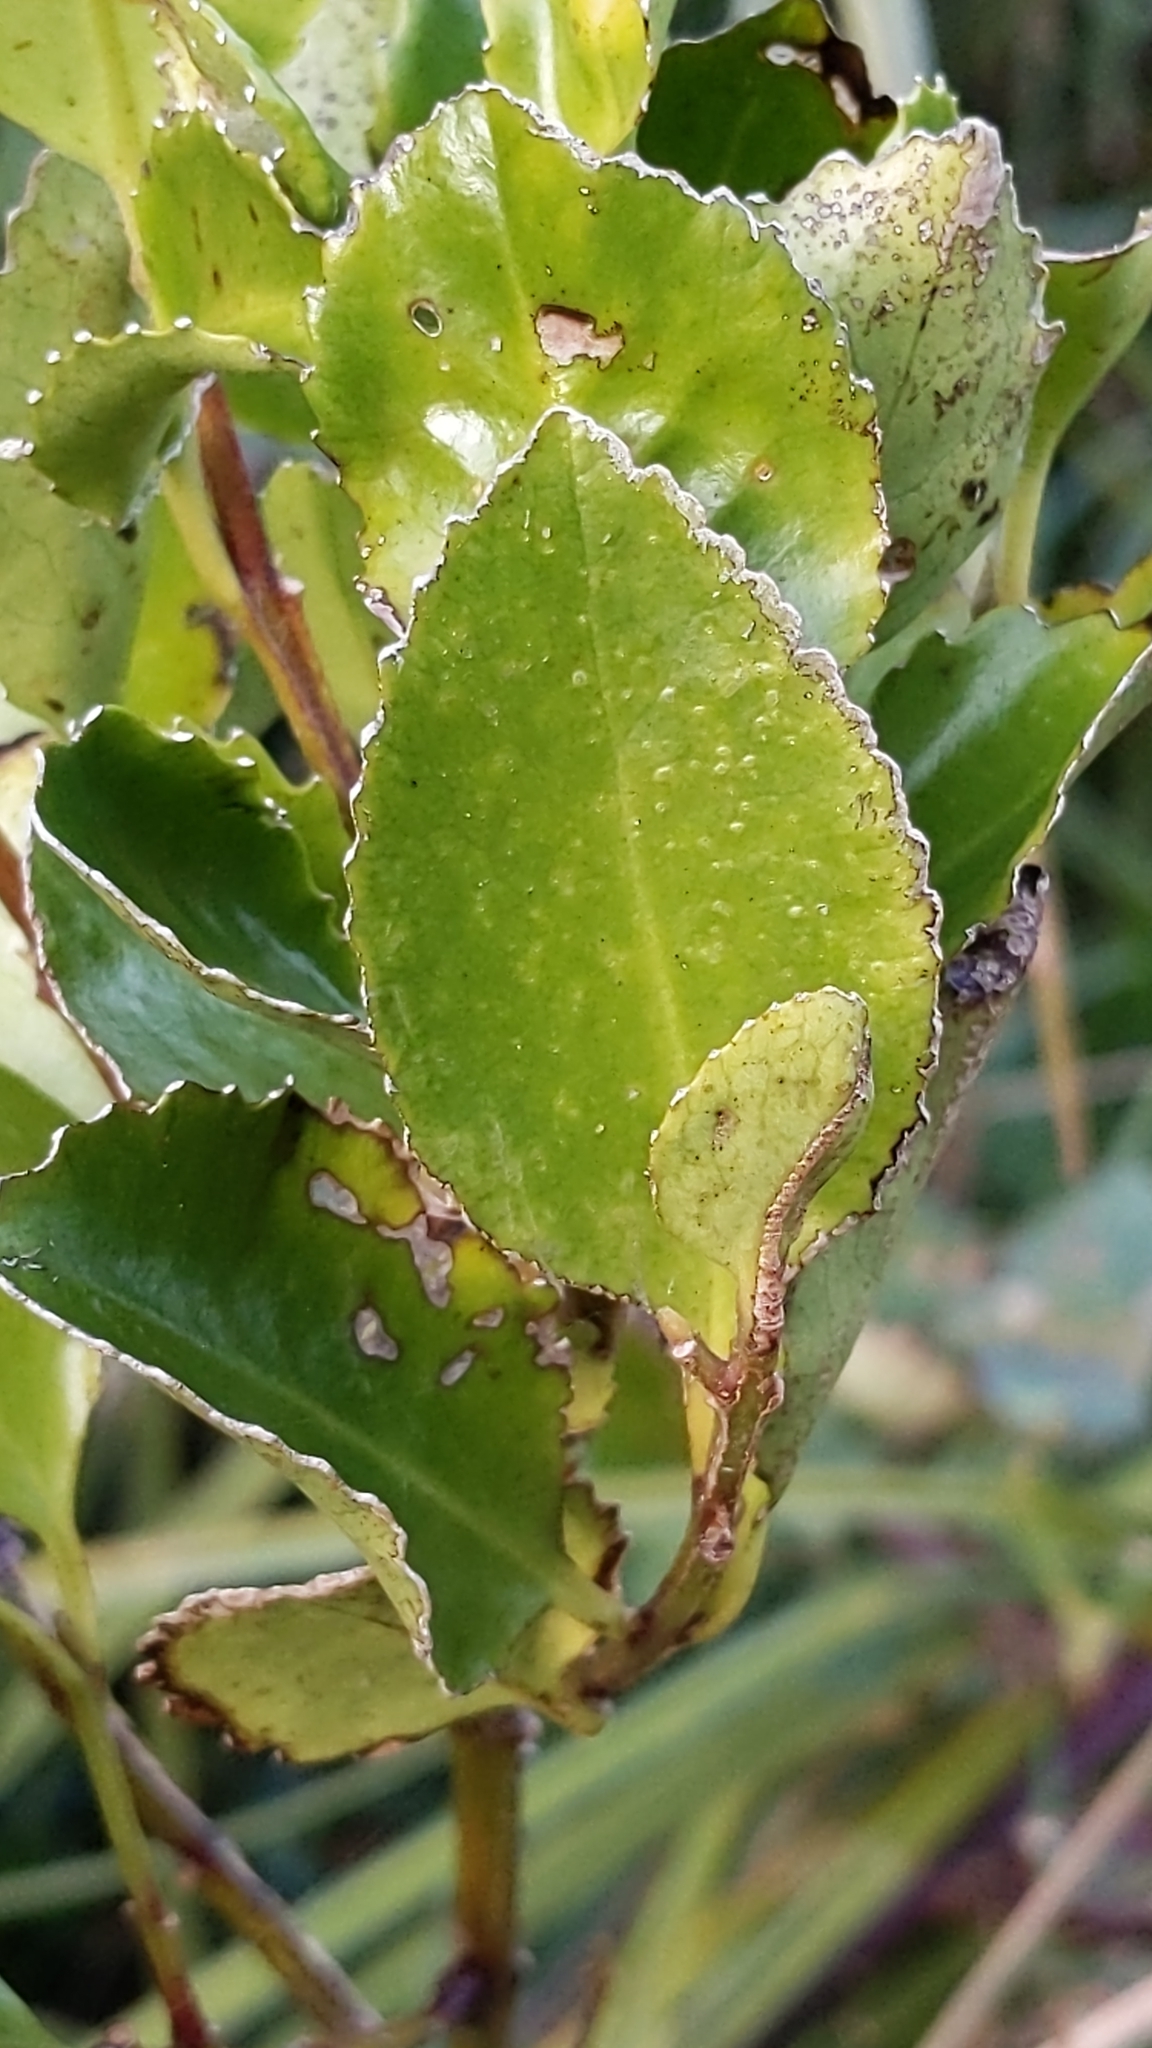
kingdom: Plantae
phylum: Tracheophyta
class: Magnoliopsida
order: Laurales
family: Atherospermataceae
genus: Laurelia
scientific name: Laurelia novae-zelandiae
